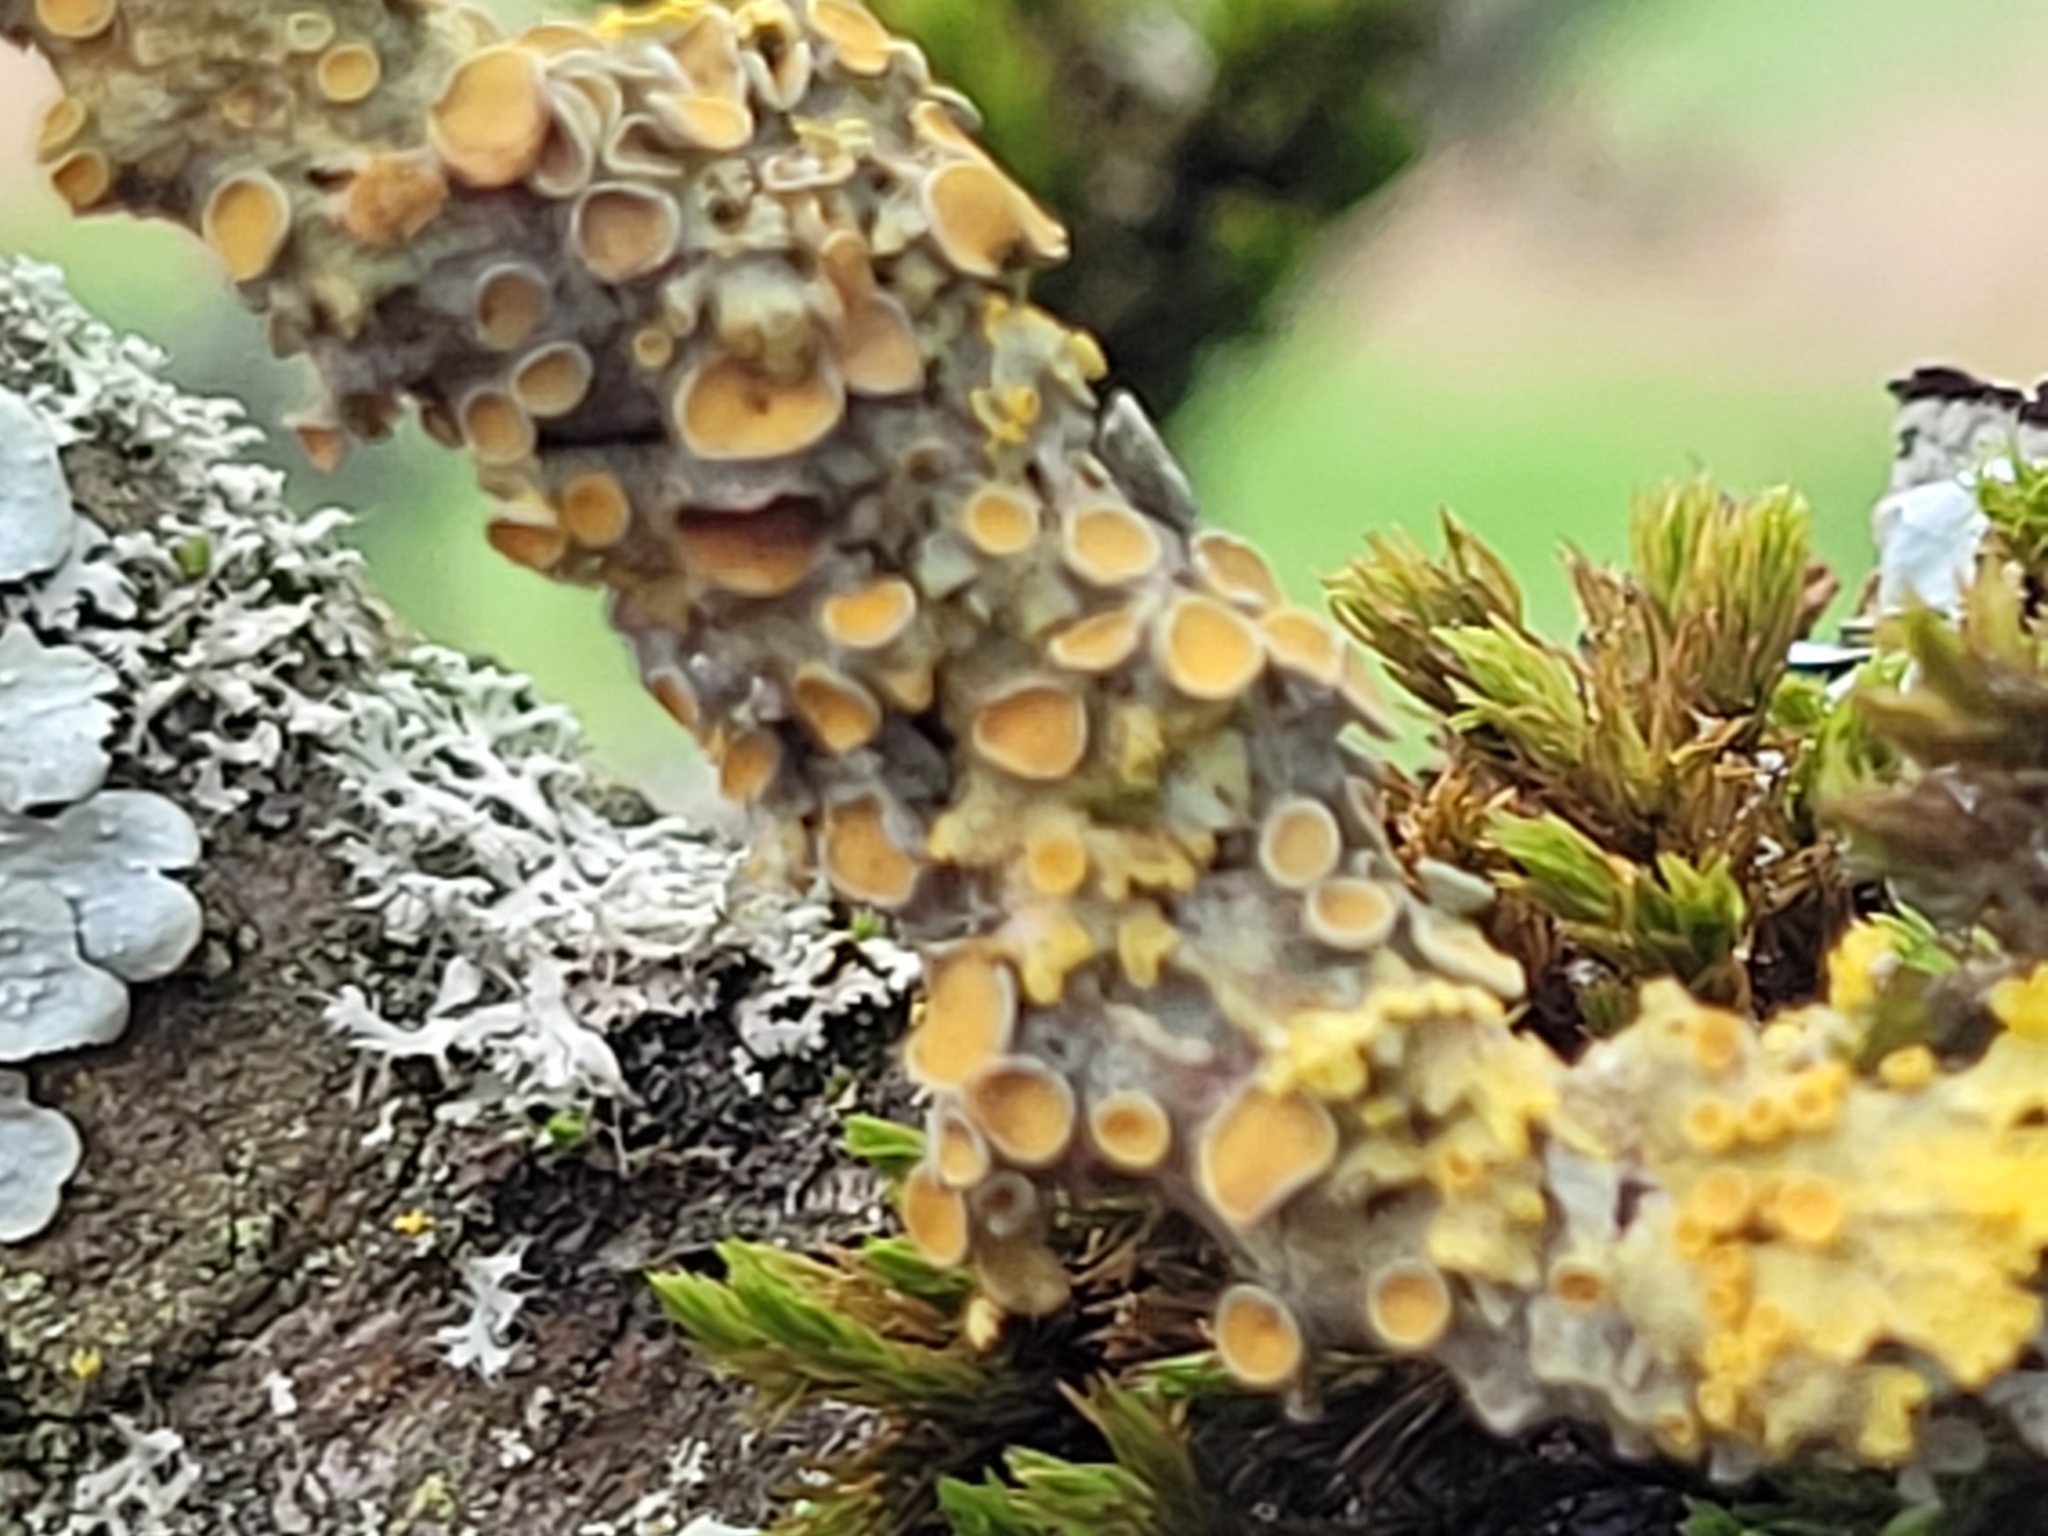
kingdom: Fungi
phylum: Ascomycota
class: Lecanoromycetes
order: Teloschistales
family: Teloschistaceae
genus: Xanthoria
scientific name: Xanthoria parietina
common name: Common orange lichen
